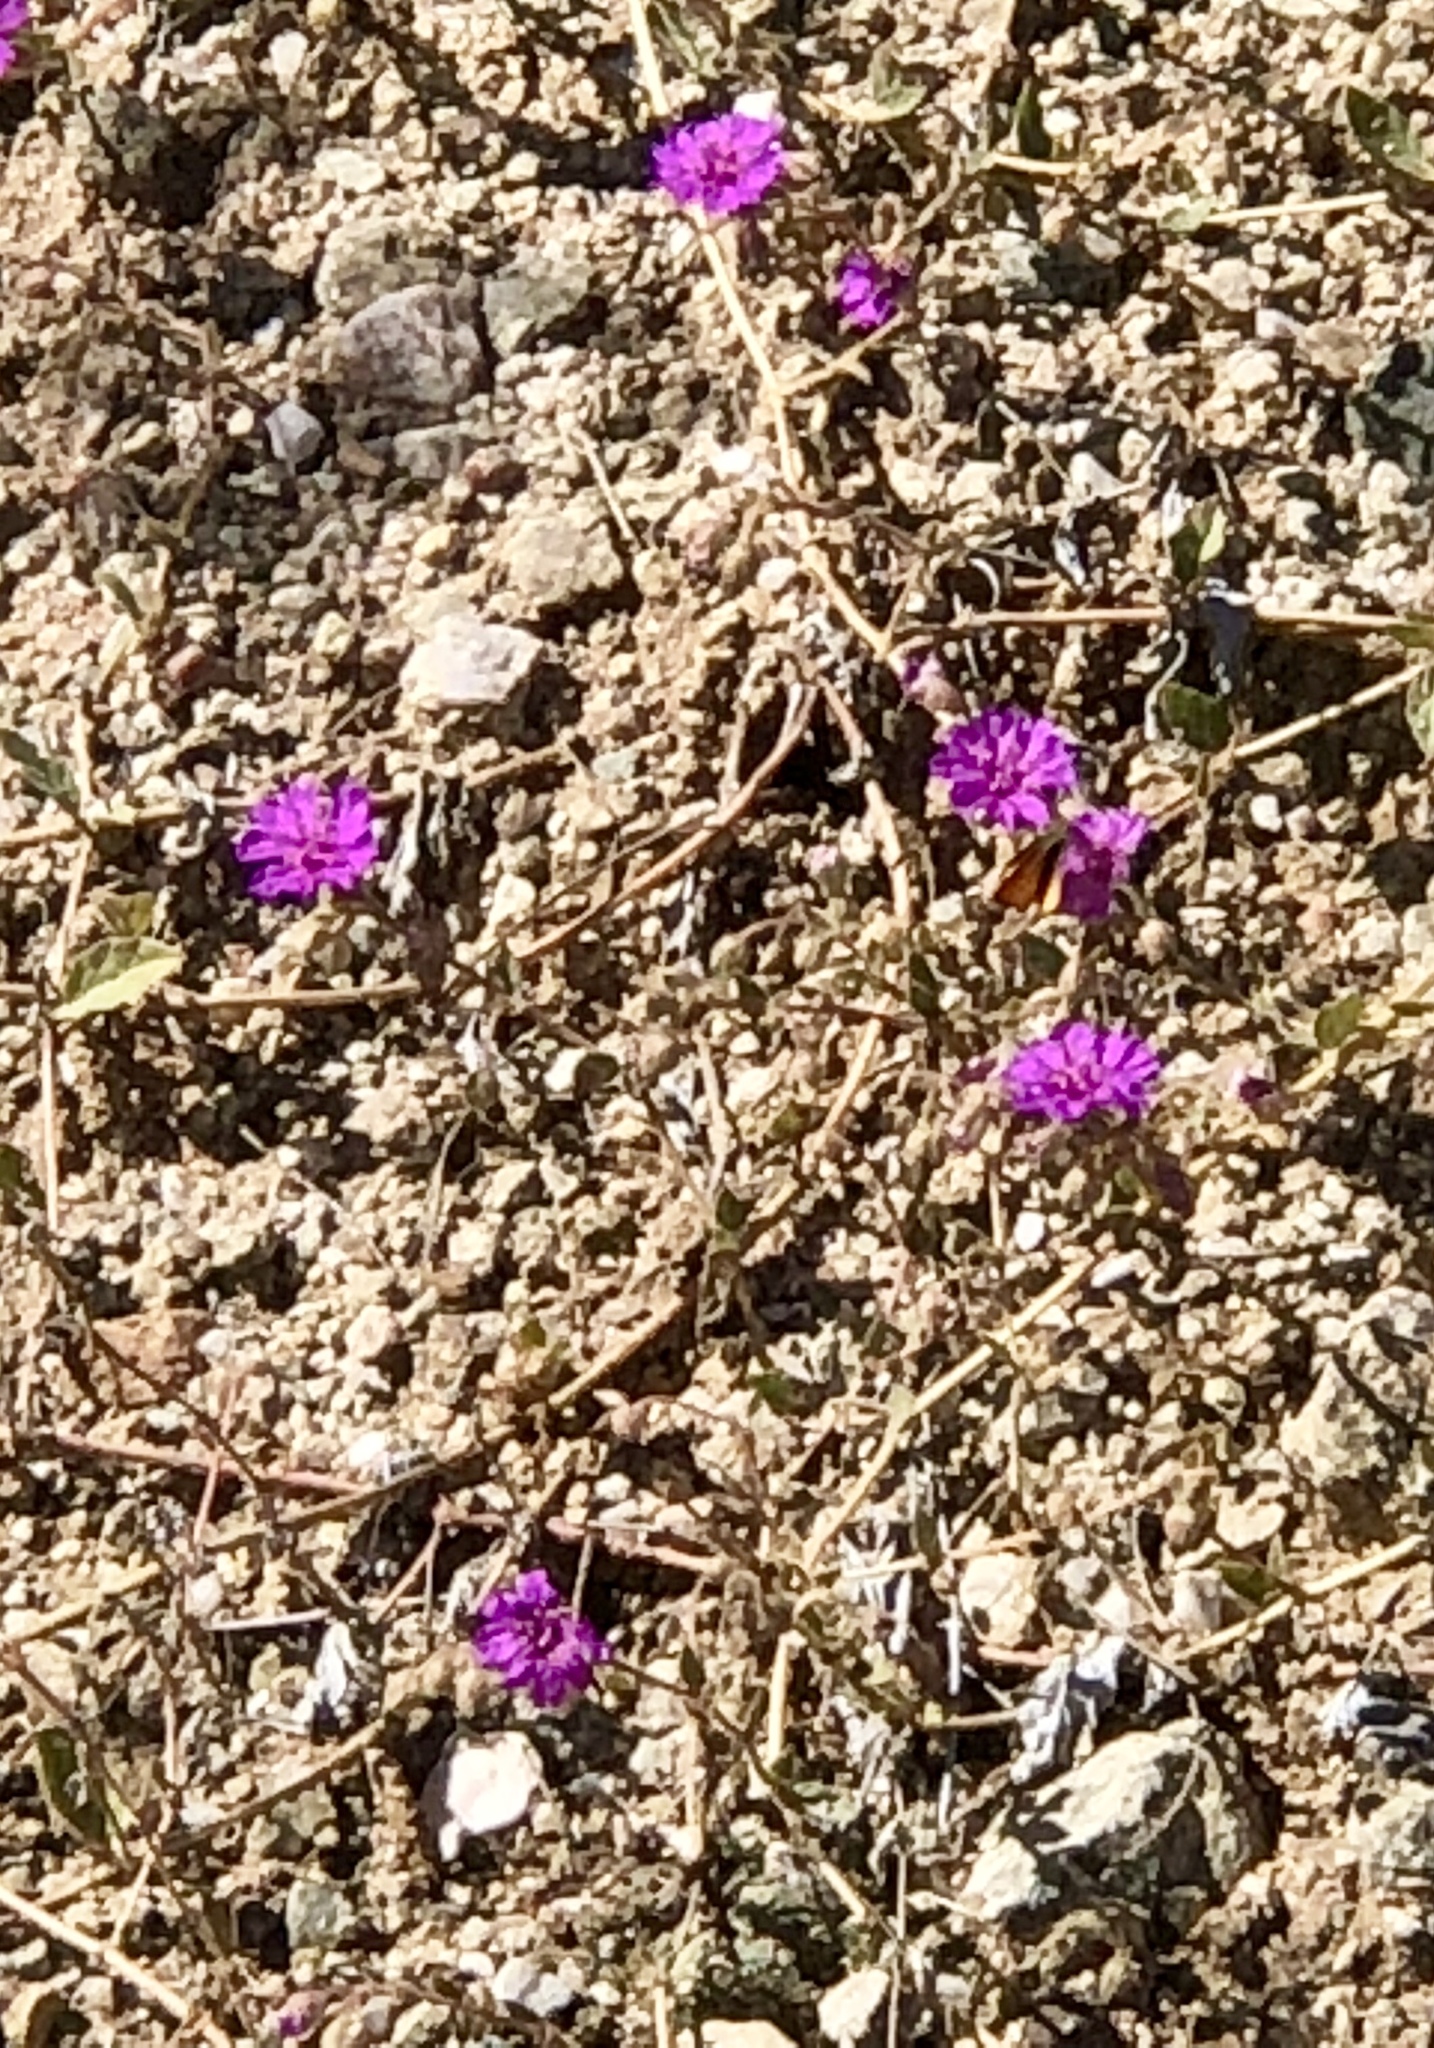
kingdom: Plantae
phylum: Tracheophyta
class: Magnoliopsida
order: Caryophyllales
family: Nyctaginaceae
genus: Allionia
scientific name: Allionia incarnata
